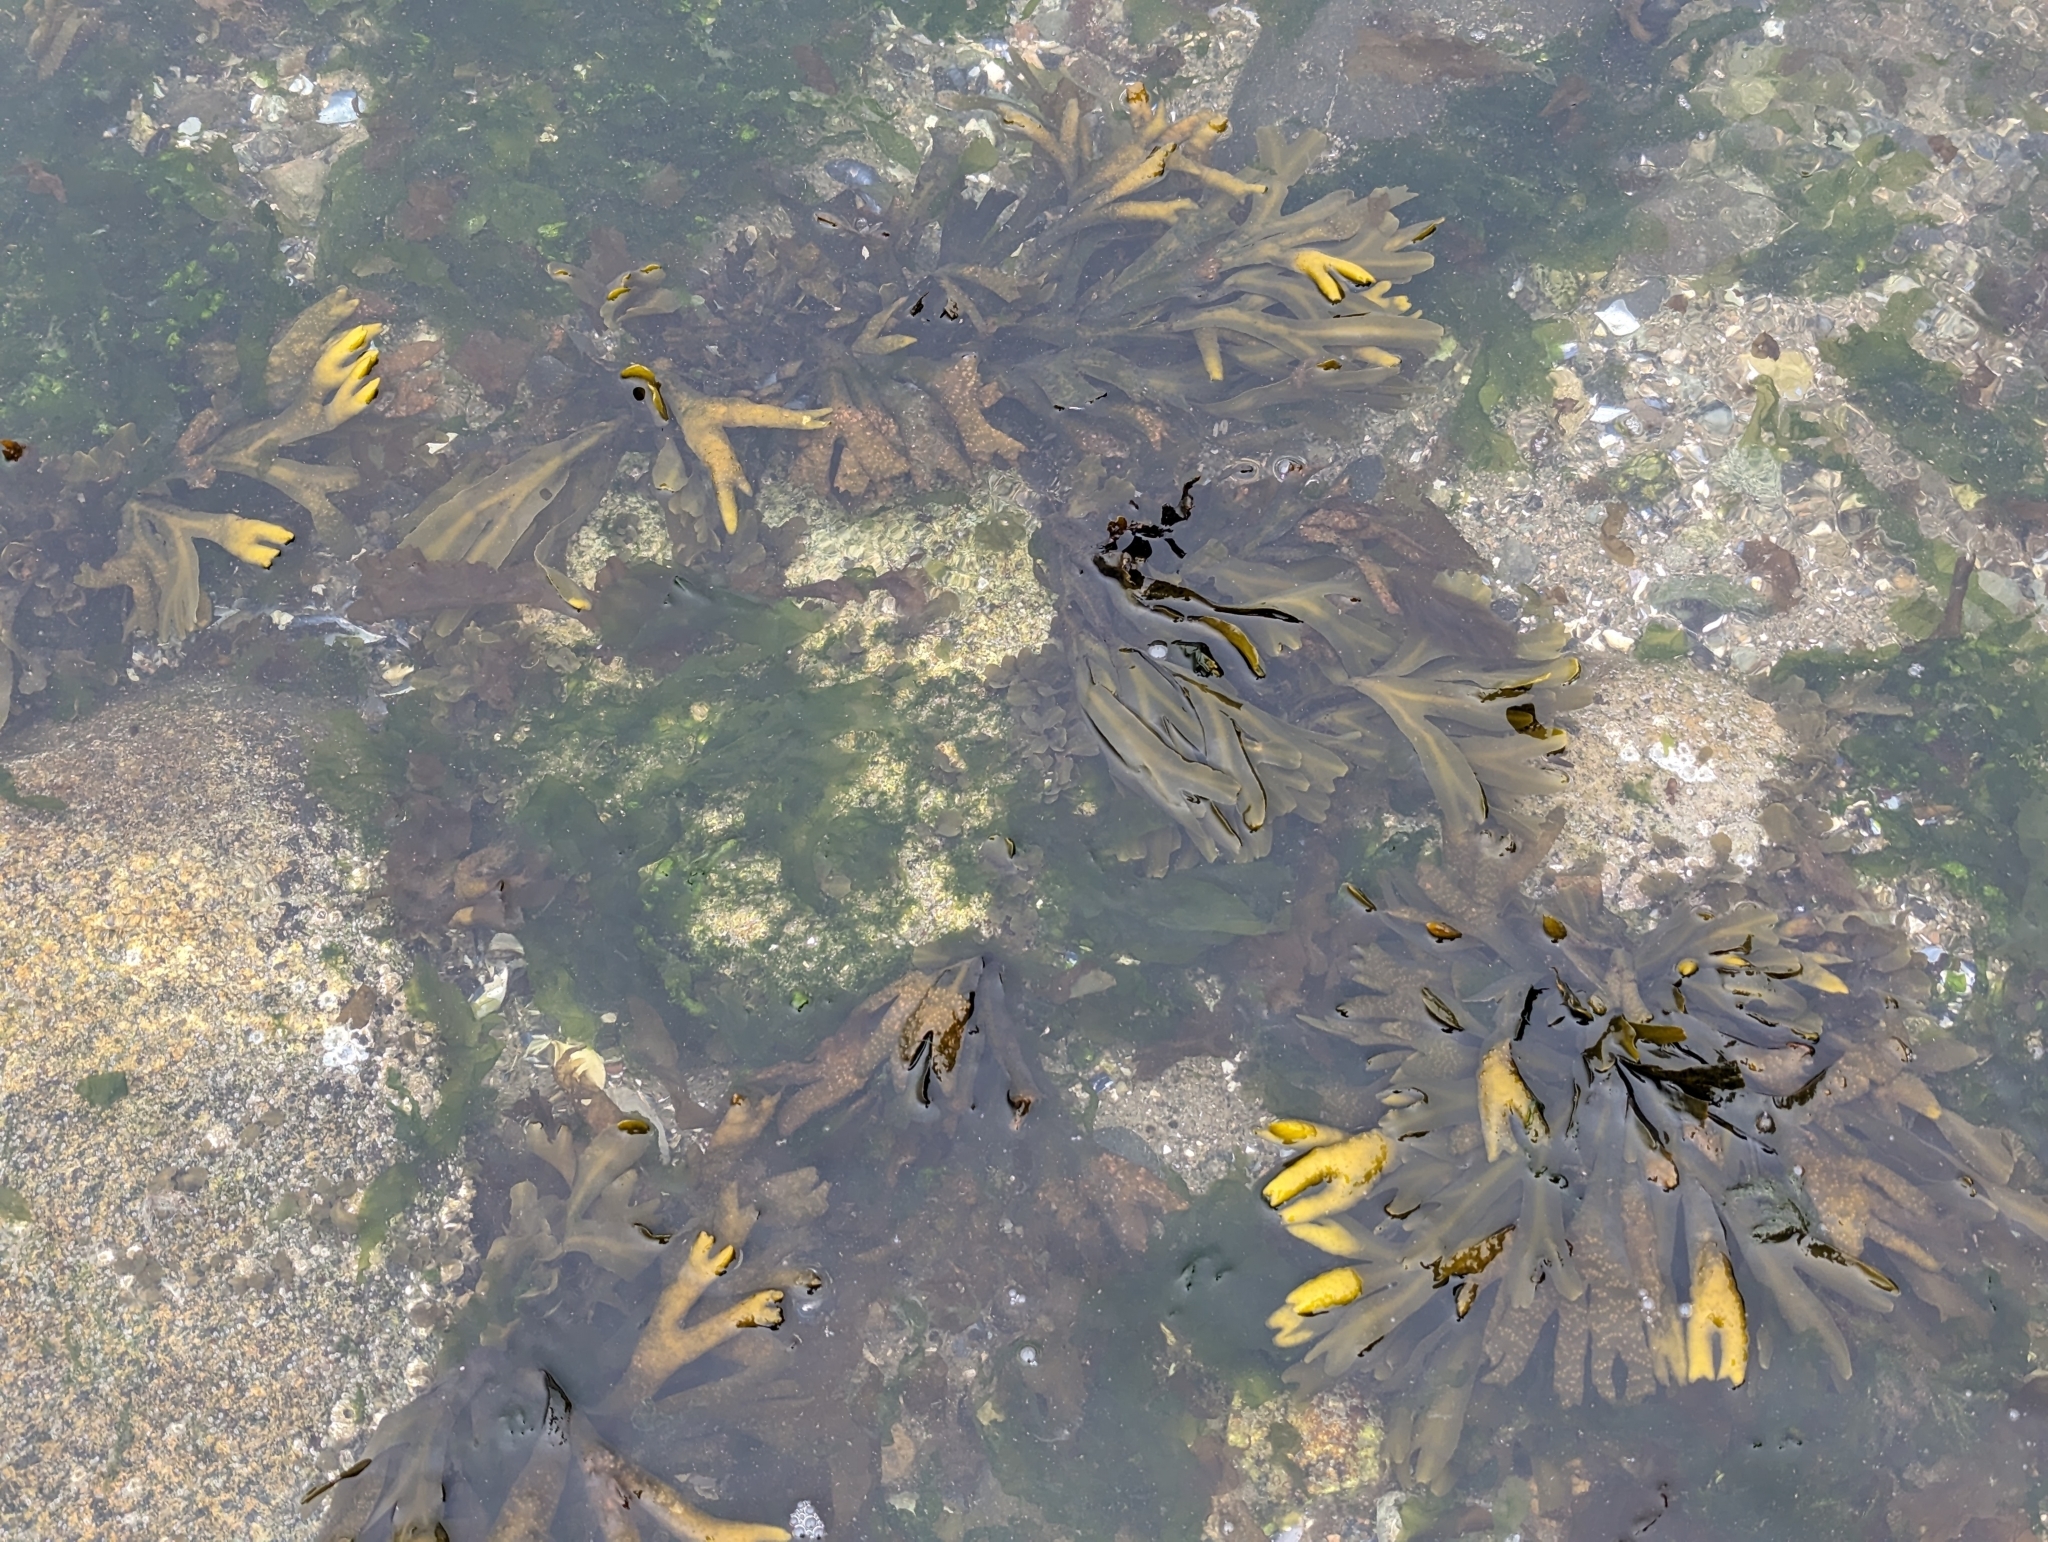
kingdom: Chromista
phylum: Ochrophyta
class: Phaeophyceae
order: Fucales
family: Fucaceae
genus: Fucus
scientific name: Fucus distichus
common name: Rockweed
